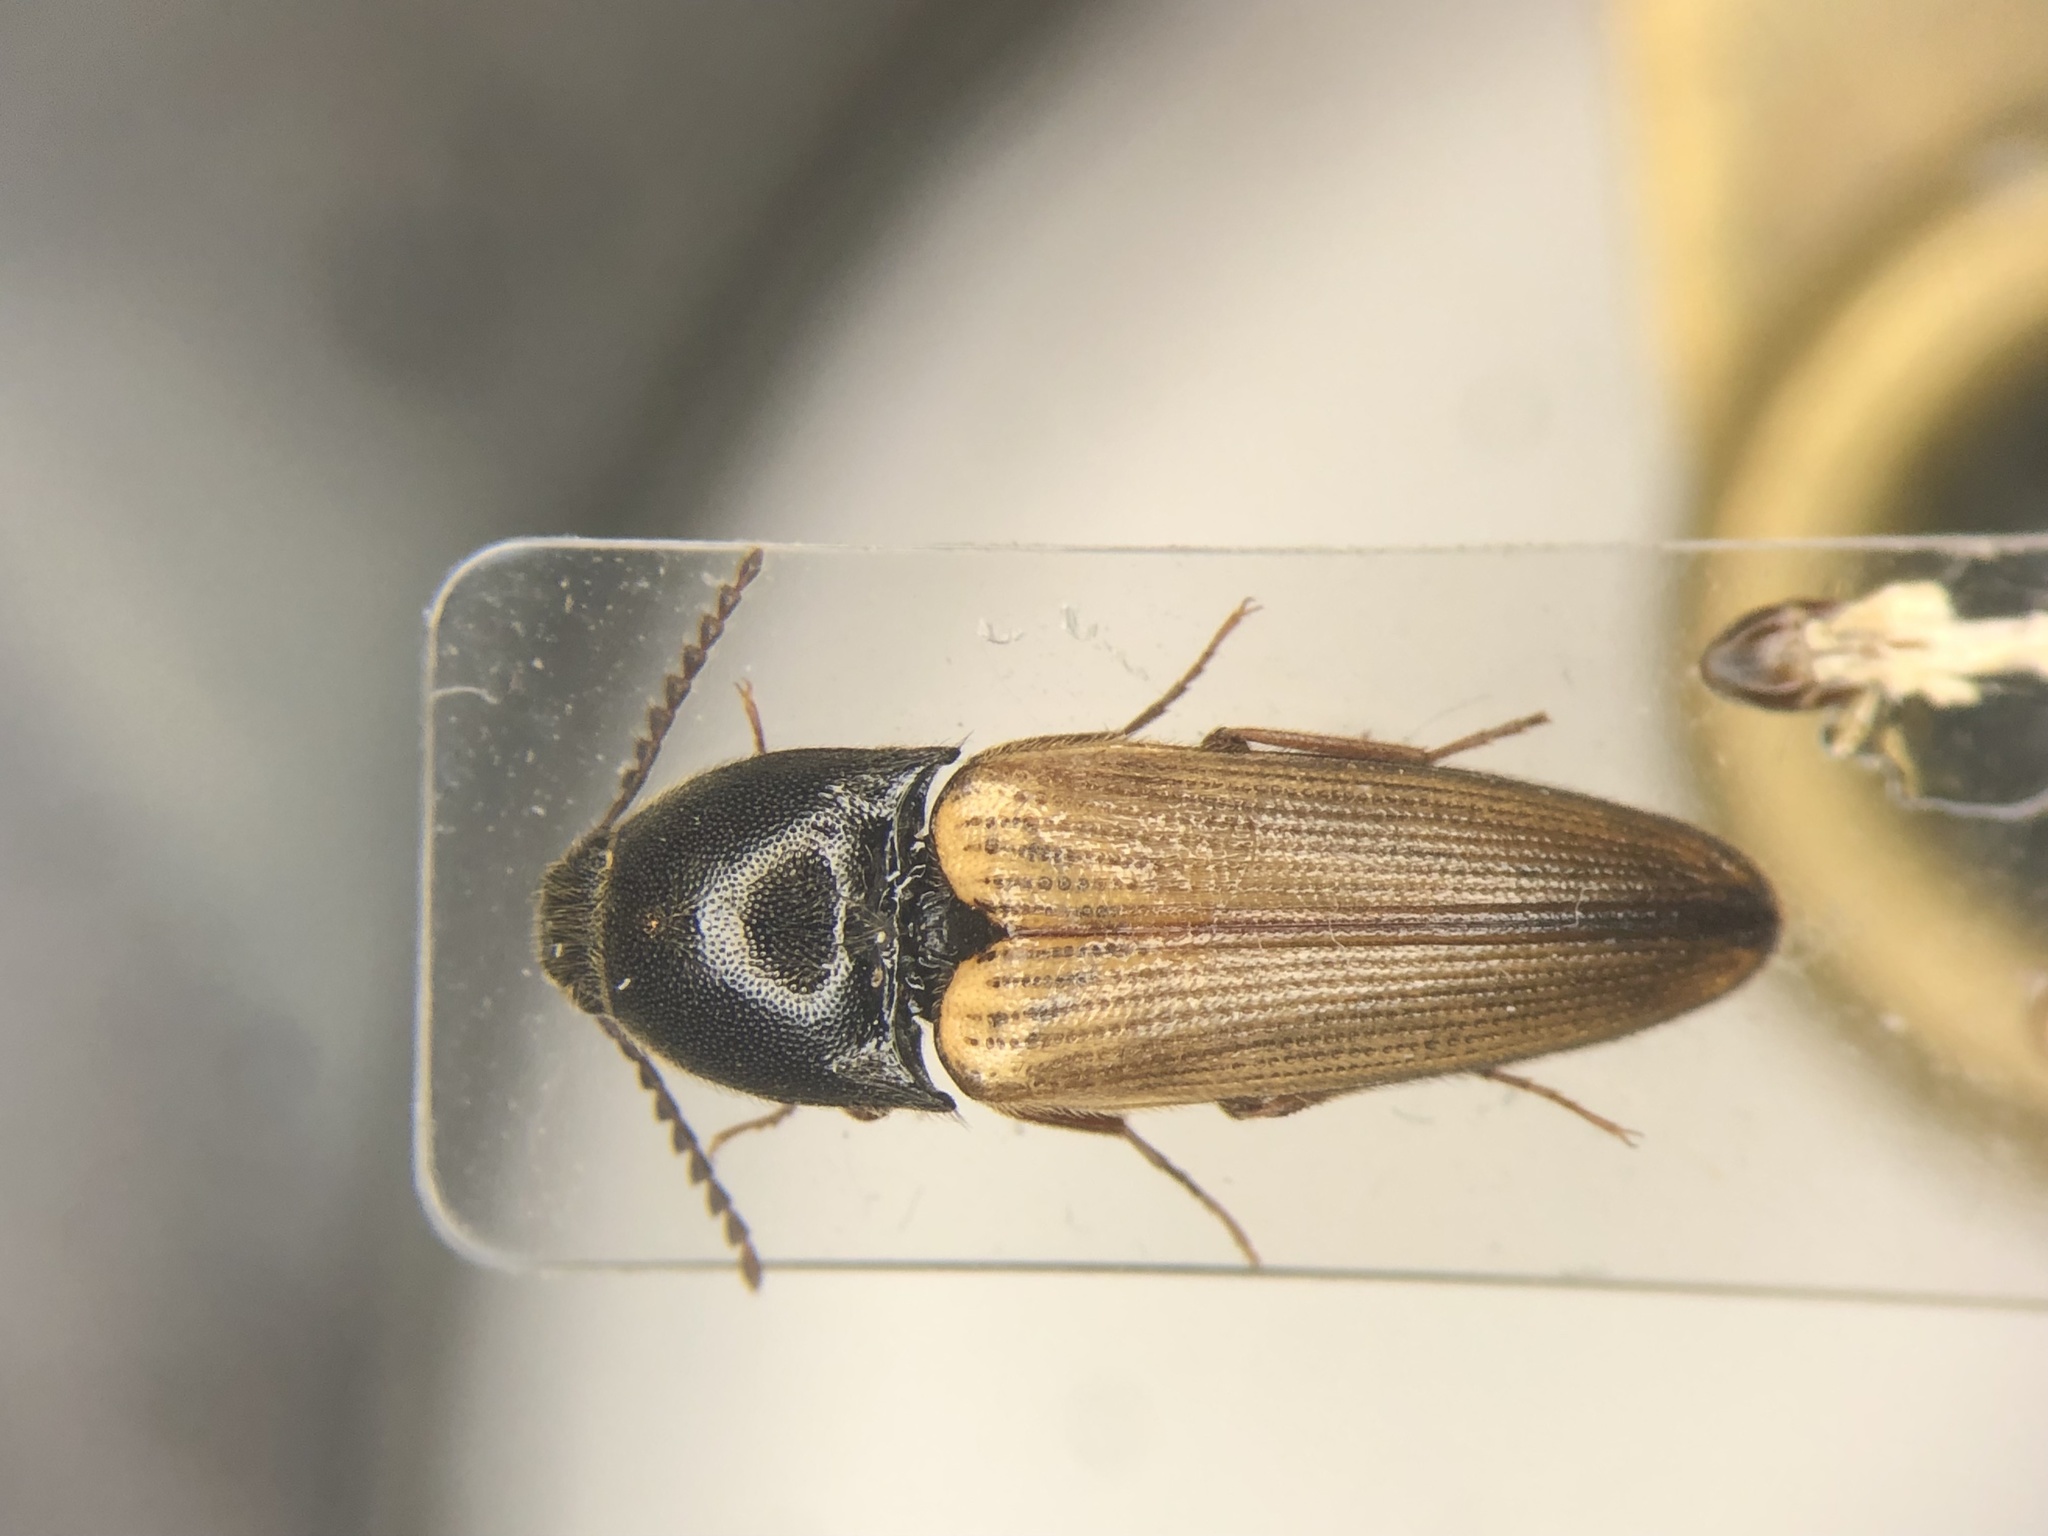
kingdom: Animalia
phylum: Arthropoda
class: Insecta
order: Coleoptera
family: Elateridae
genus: Ampedus
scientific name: Ampedus nigricollis
